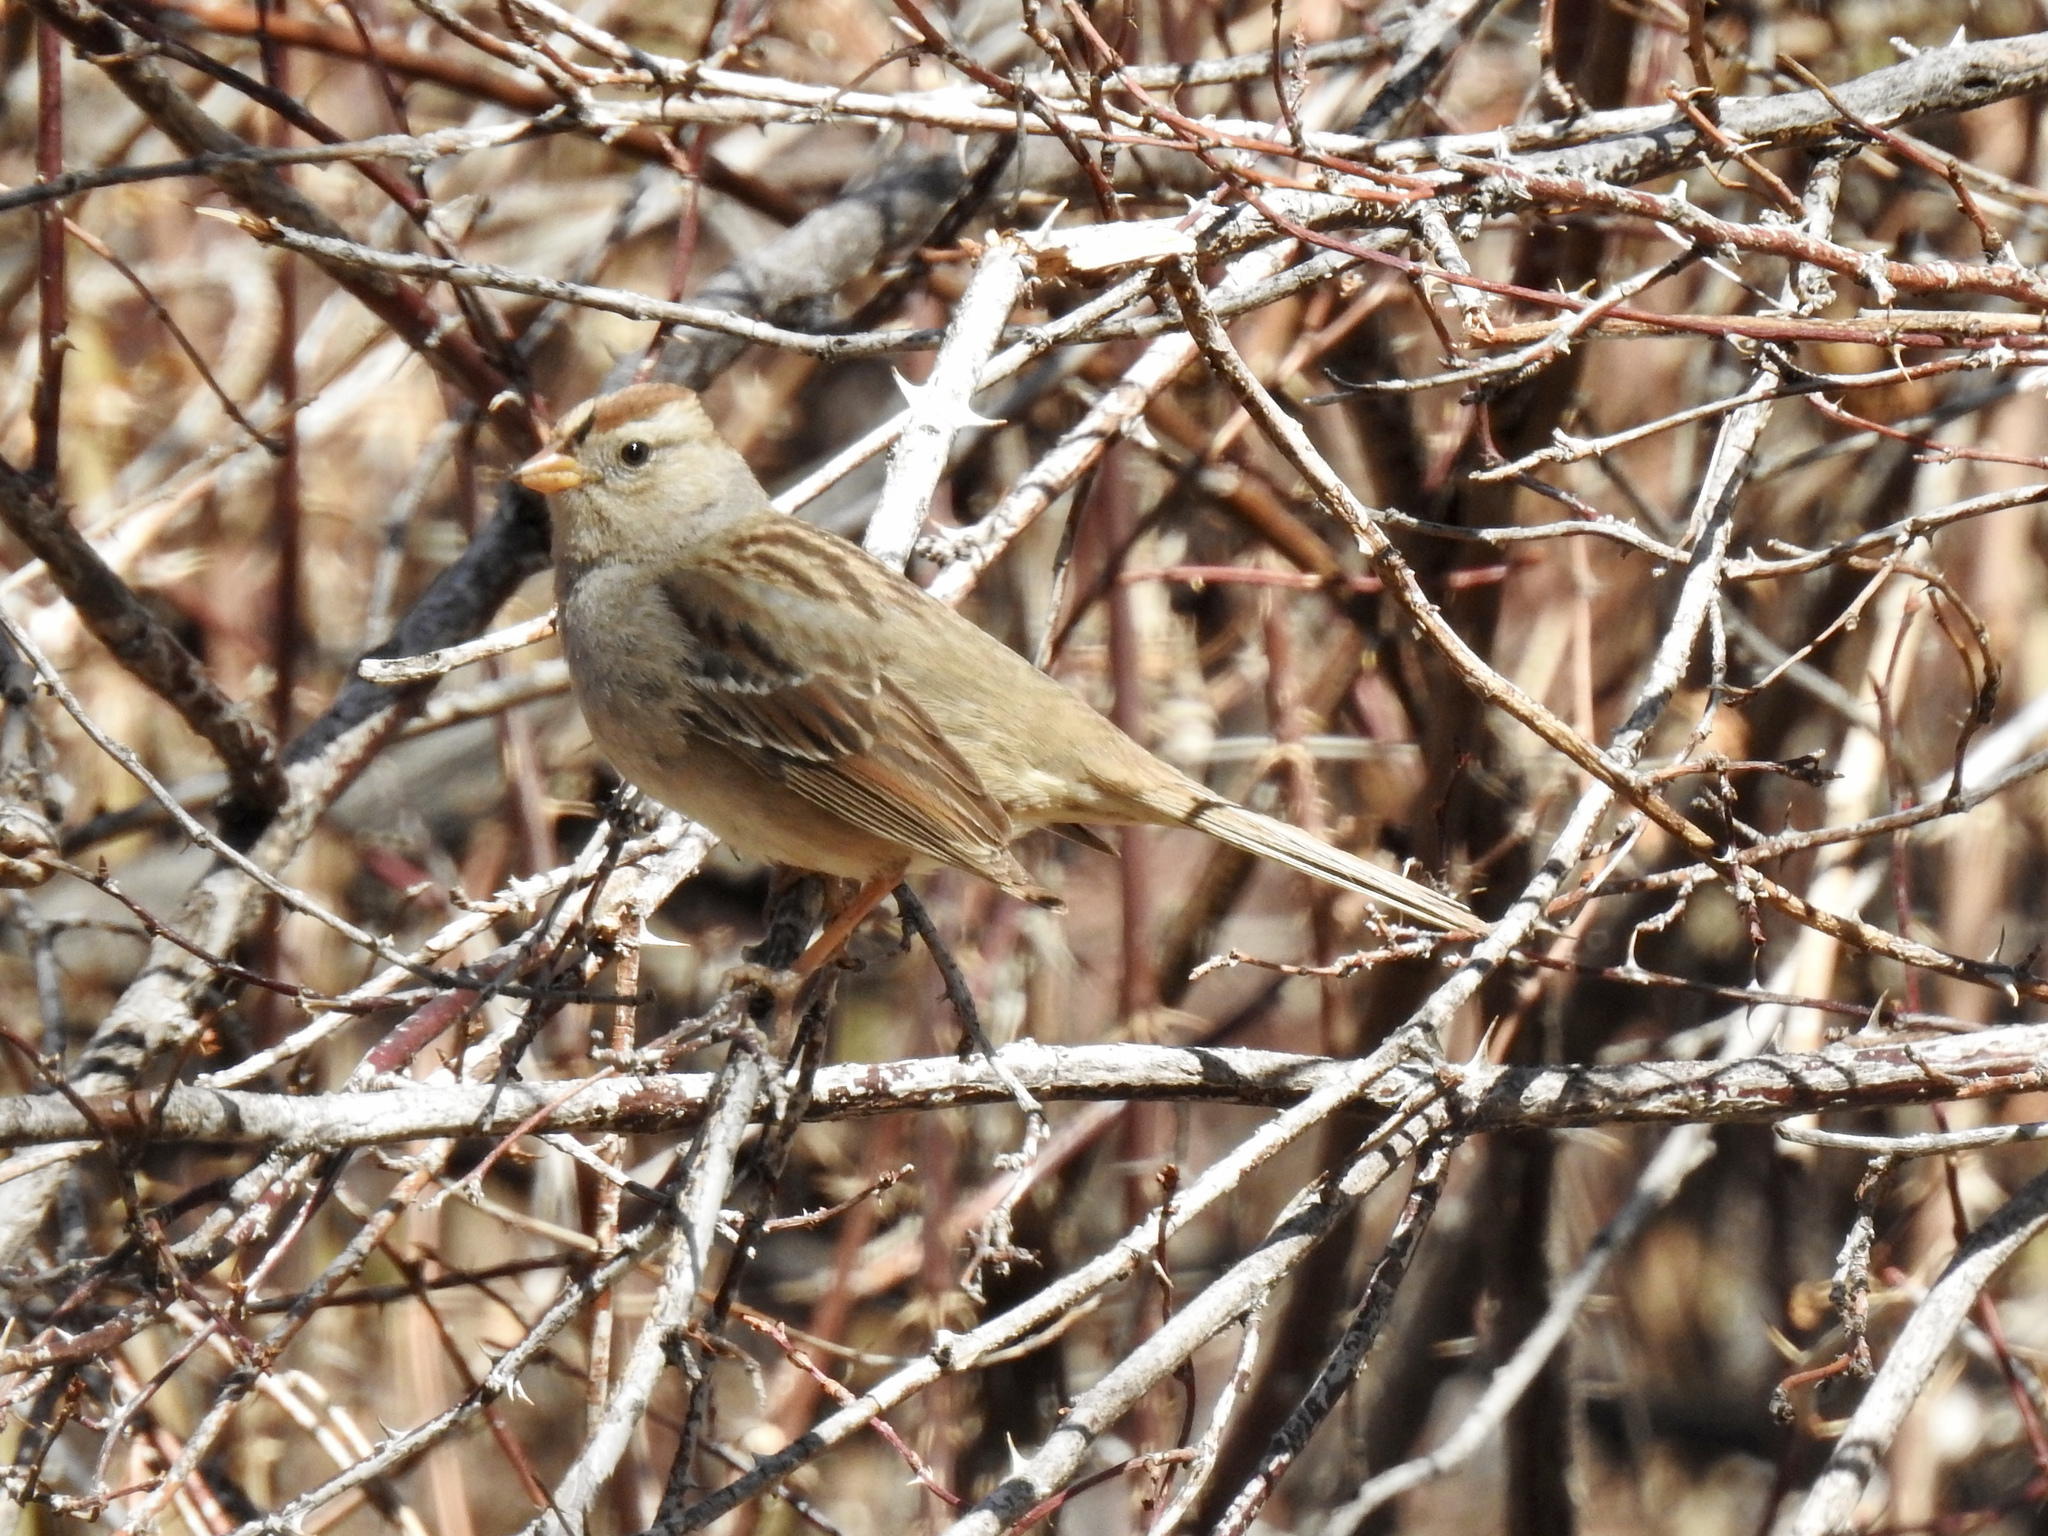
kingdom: Animalia
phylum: Chordata
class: Aves
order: Passeriformes
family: Passerellidae
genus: Zonotrichia
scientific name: Zonotrichia leucophrys
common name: White-crowned sparrow
